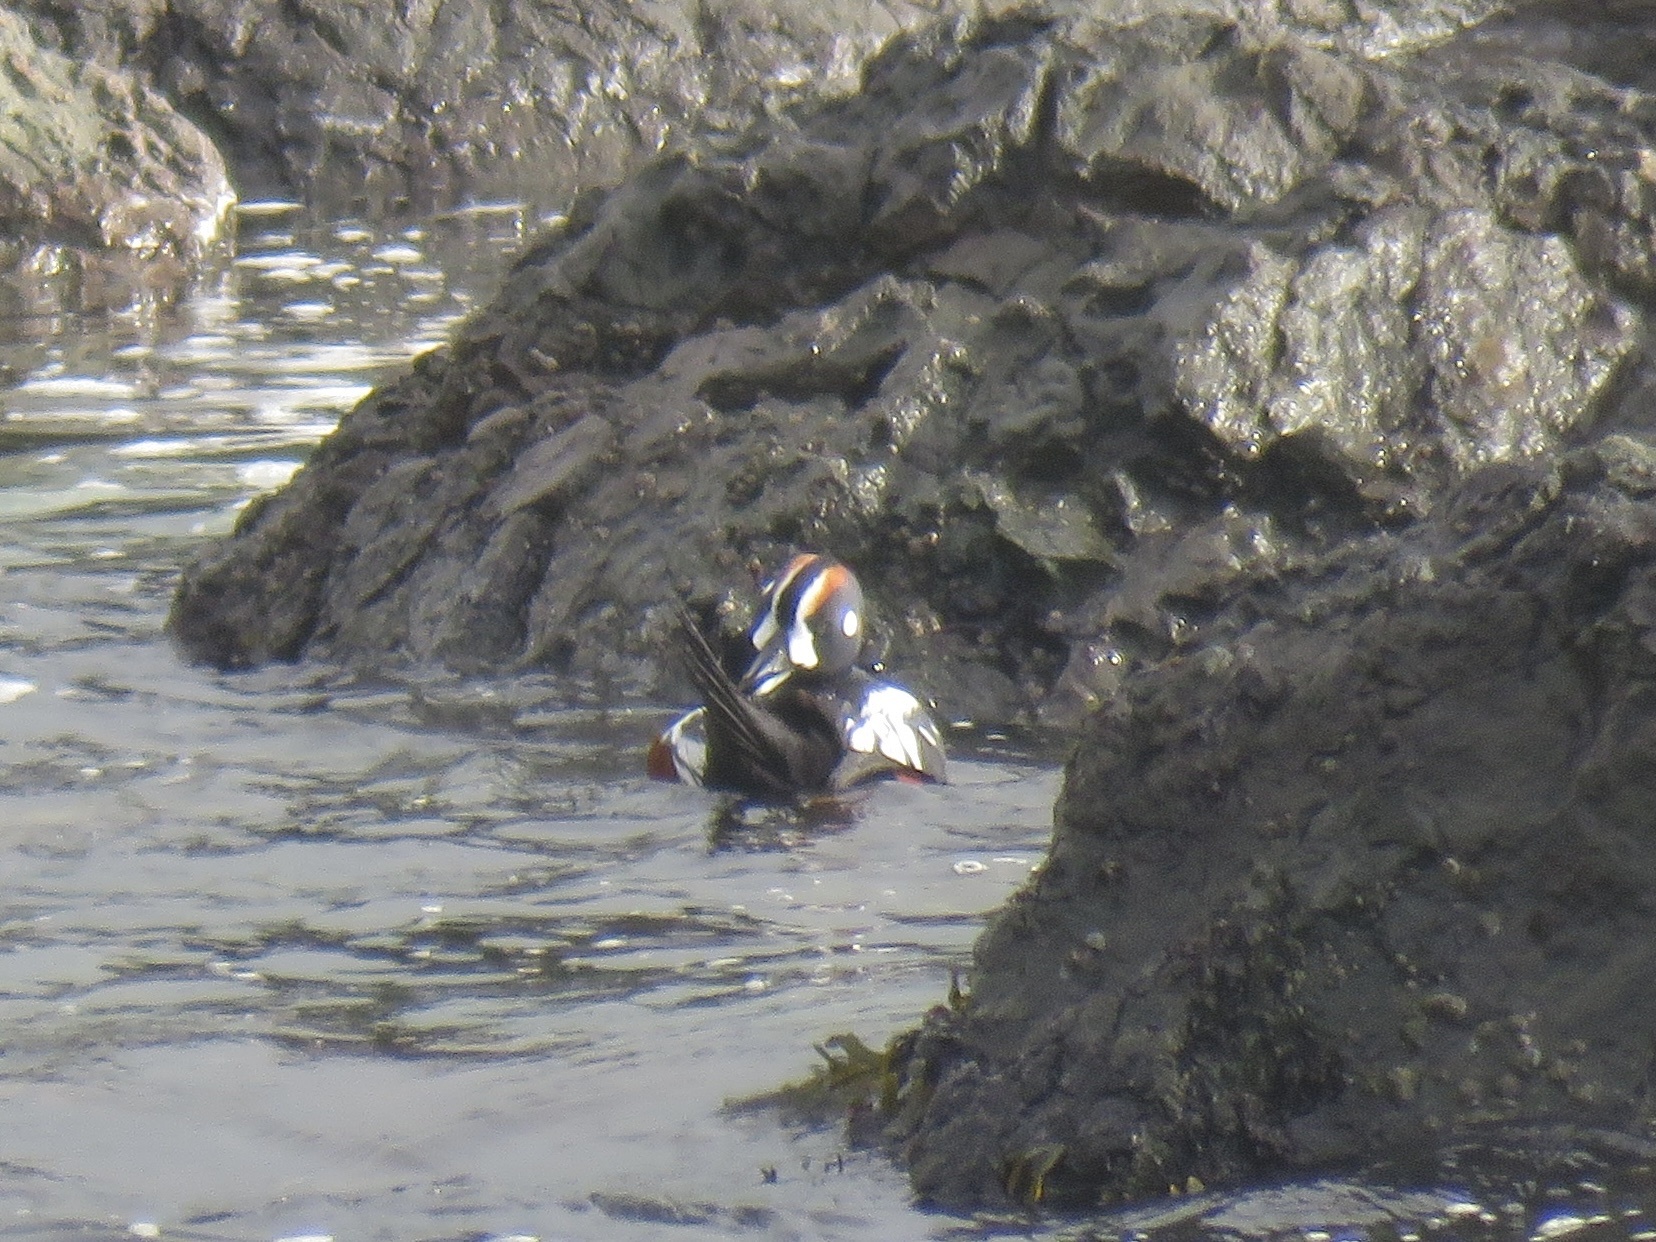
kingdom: Animalia
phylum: Chordata
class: Aves
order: Anseriformes
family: Anatidae
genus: Histrionicus
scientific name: Histrionicus histrionicus
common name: Harlequin duck
